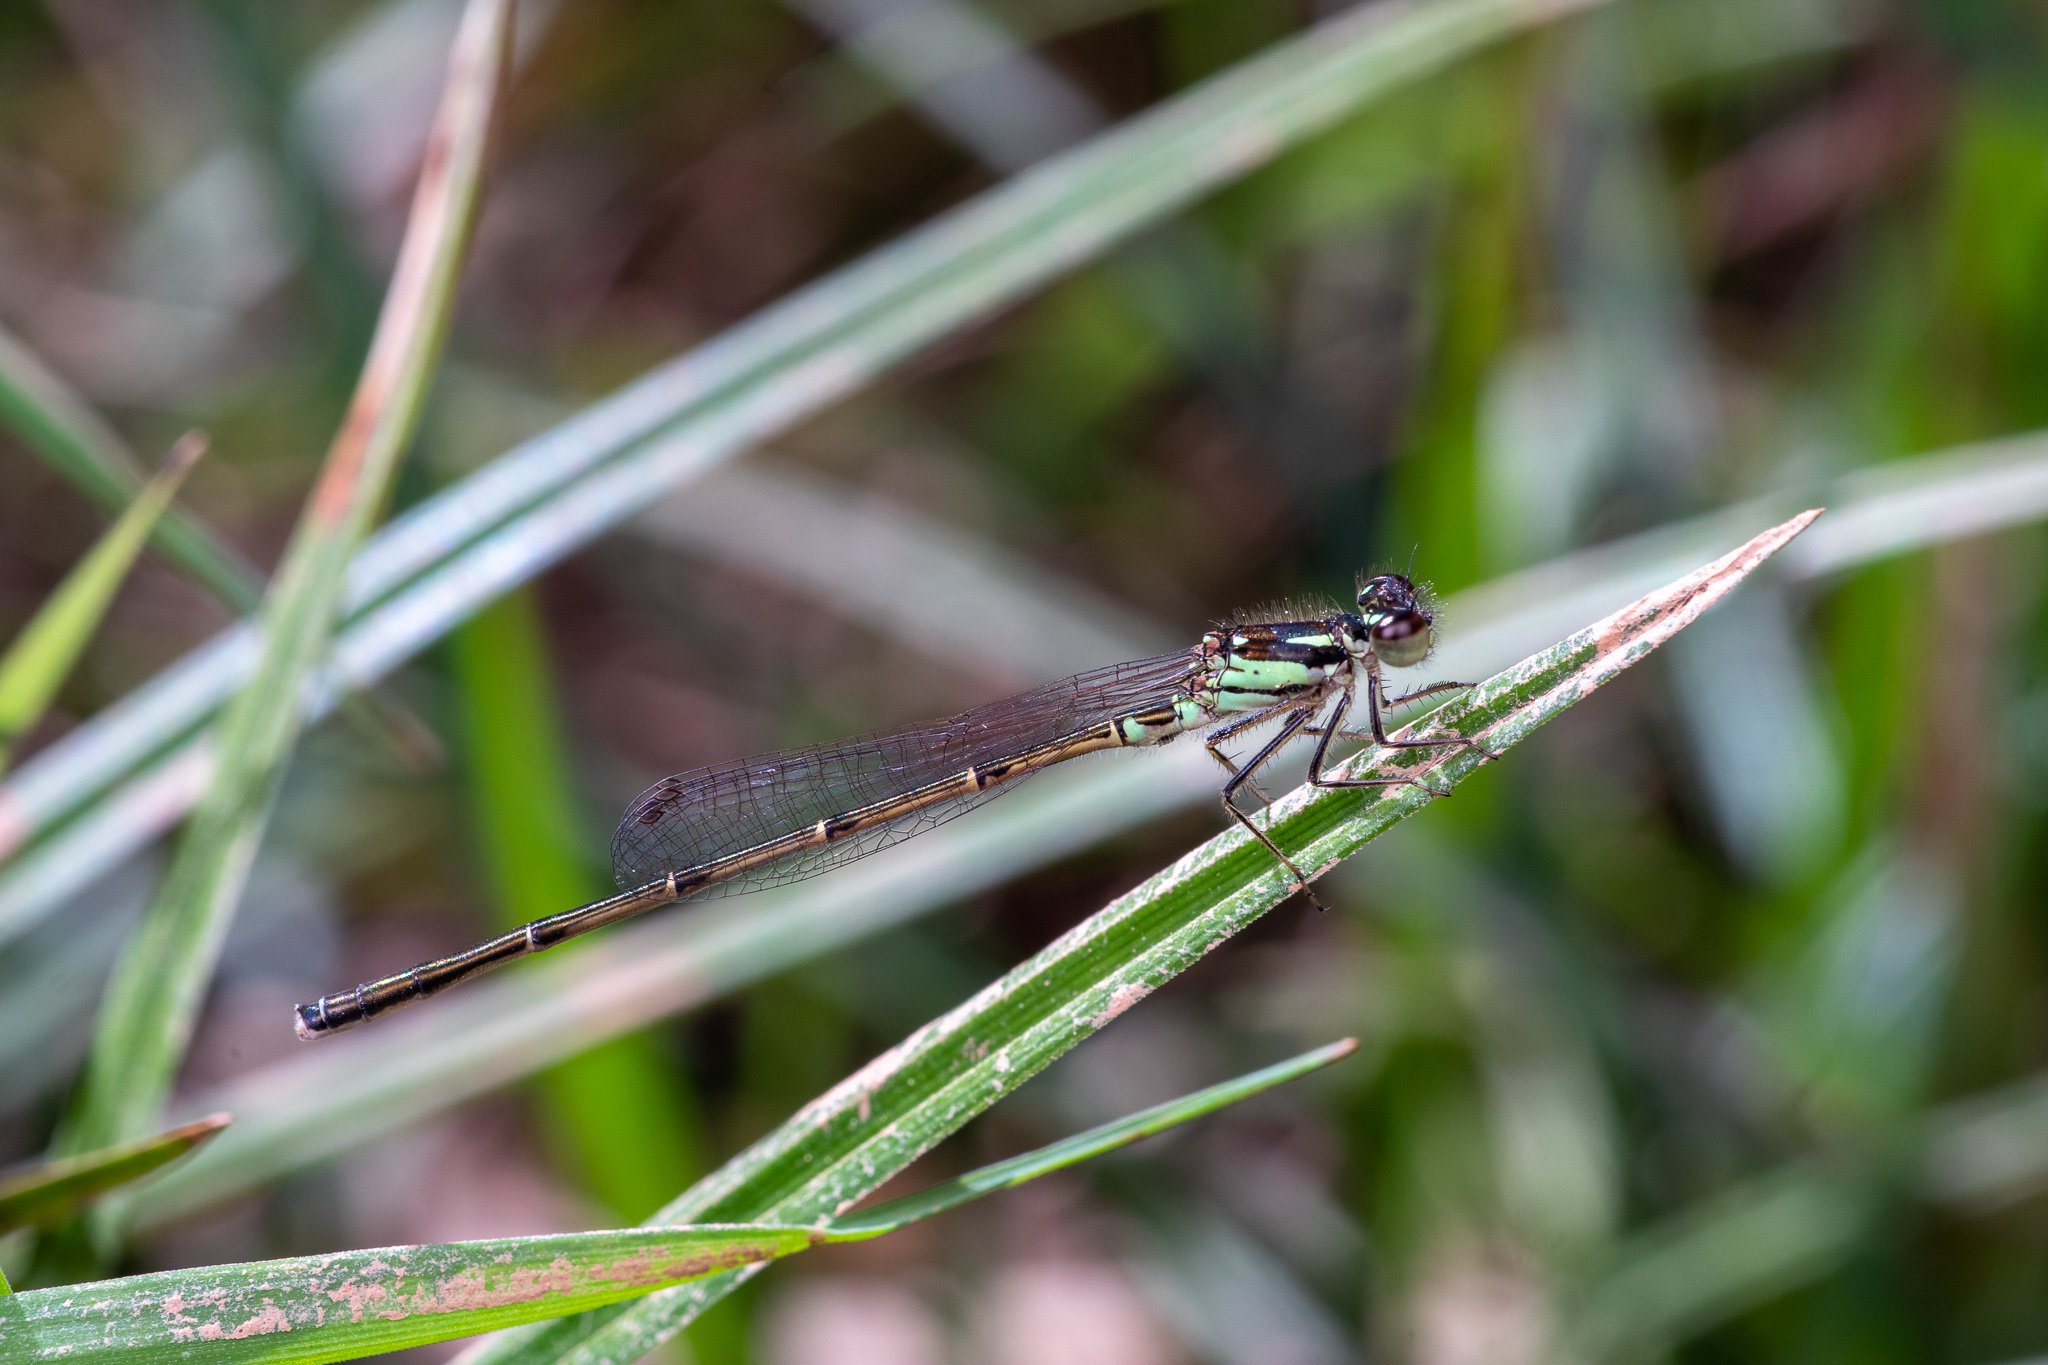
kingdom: Animalia
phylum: Arthropoda
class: Insecta
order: Odonata
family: Coenagrionidae
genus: Ischnura
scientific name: Ischnura posita
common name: Fragile forktail
